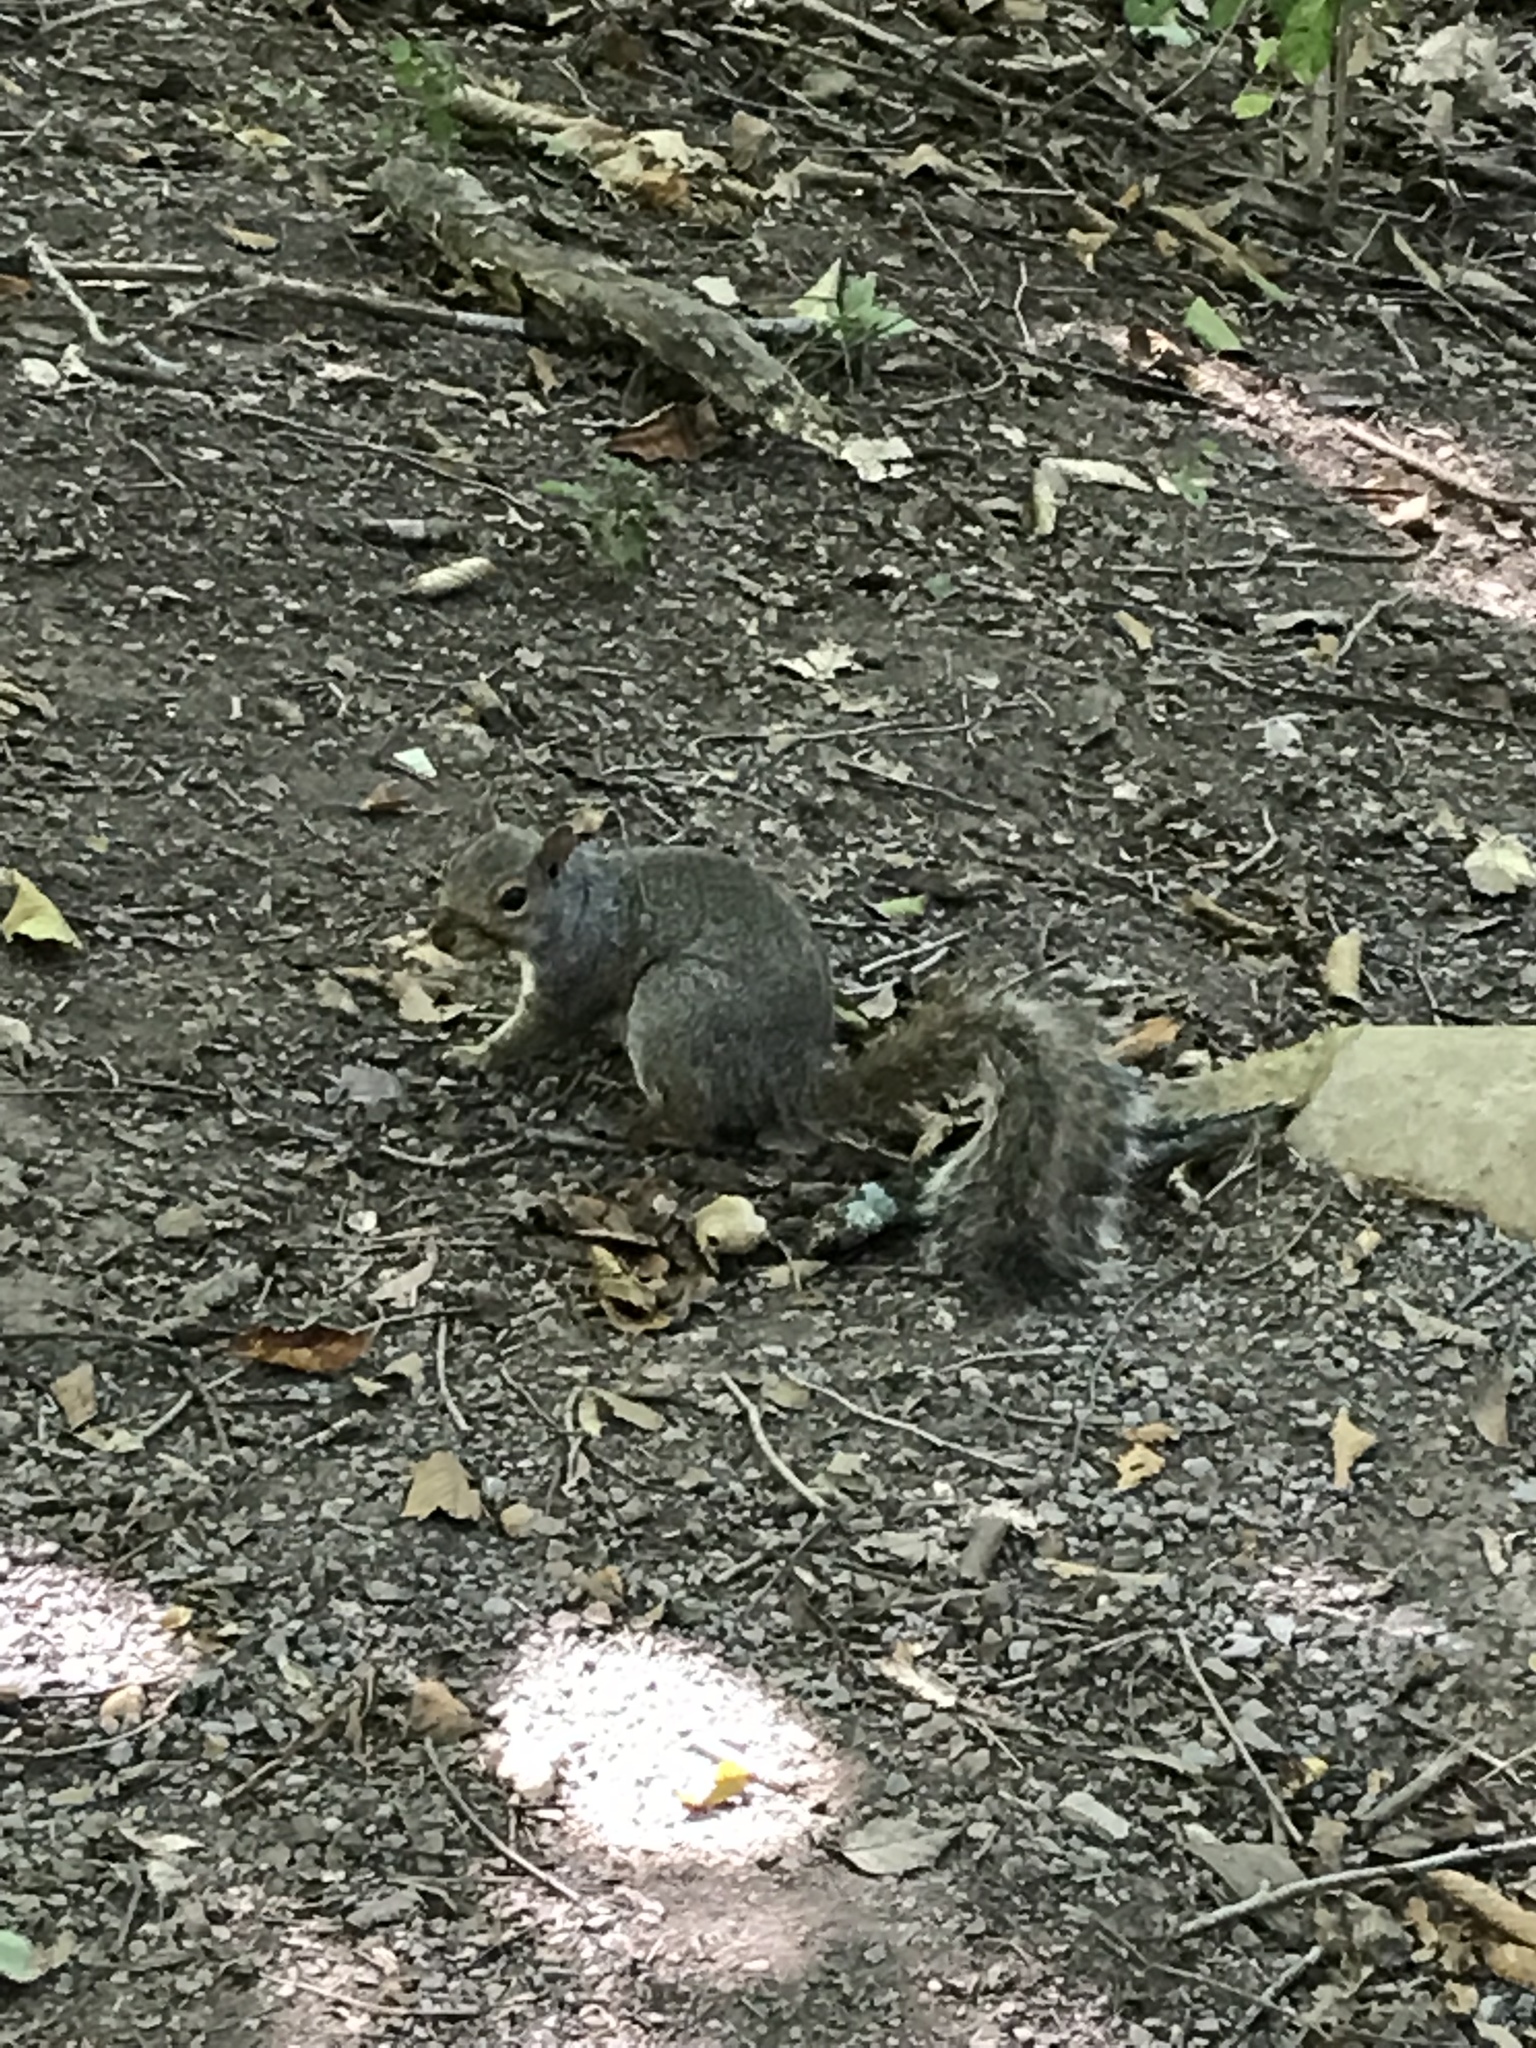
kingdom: Animalia
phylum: Chordata
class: Mammalia
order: Rodentia
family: Sciuridae
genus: Sciurus
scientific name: Sciurus carolinensis
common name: Eastern gray squirrel
